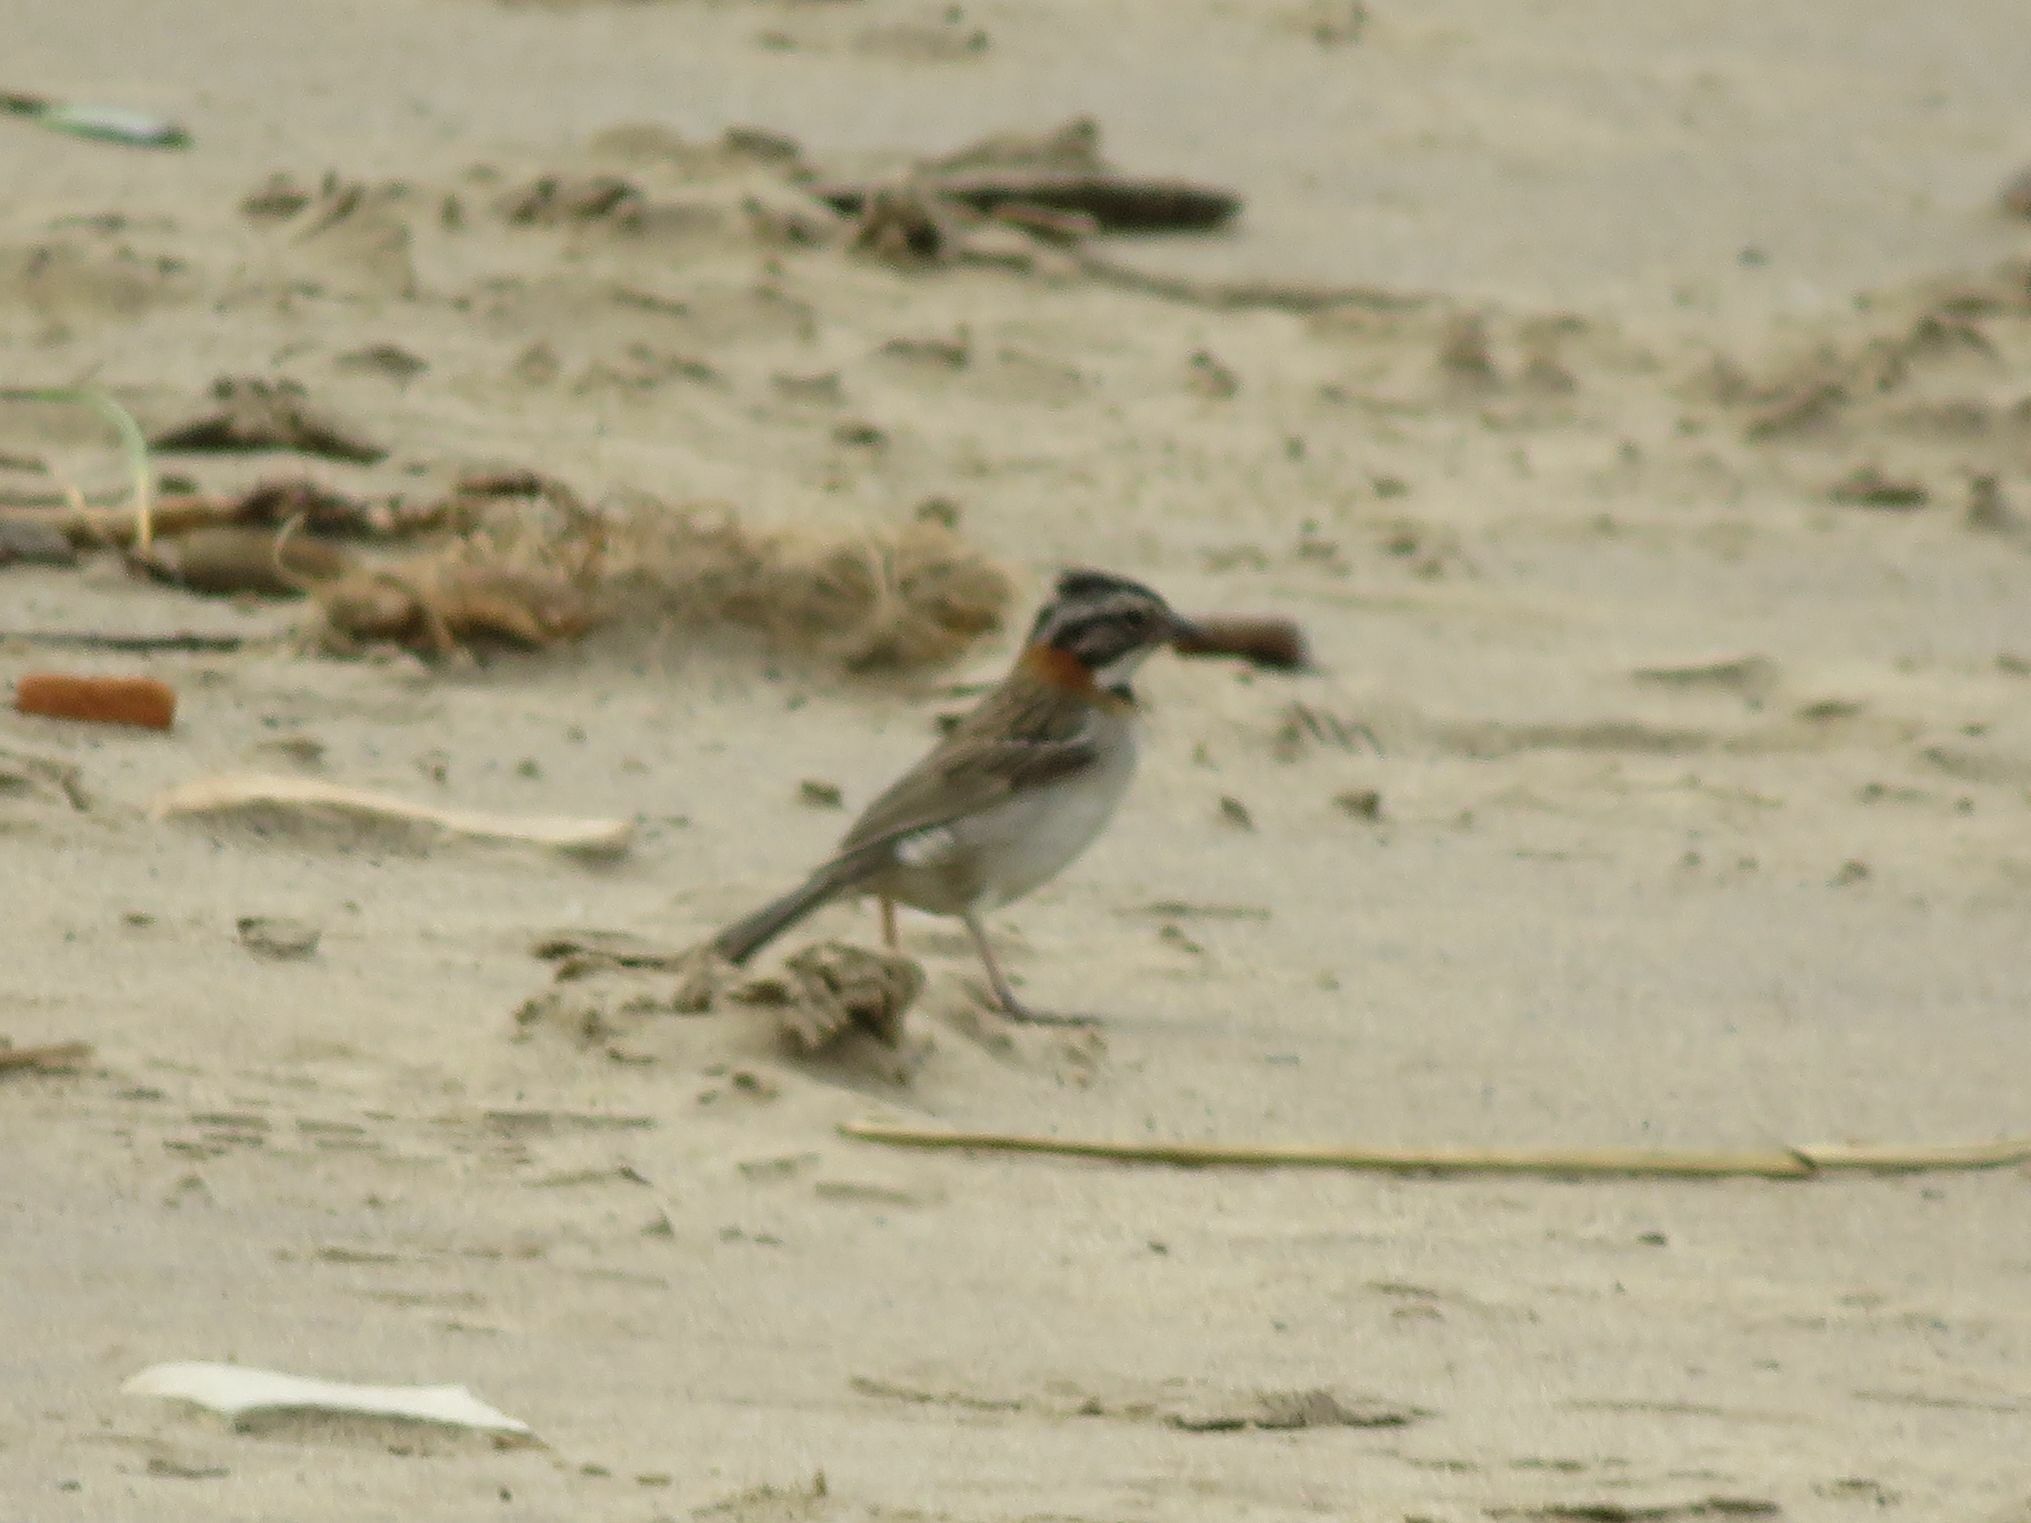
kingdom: Animalia
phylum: Chordata
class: Aves
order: Passeriformes
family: Passerellidae
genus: Zonotrichia
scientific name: Zonotrichia capensis
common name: Rufous-collared sparrow
